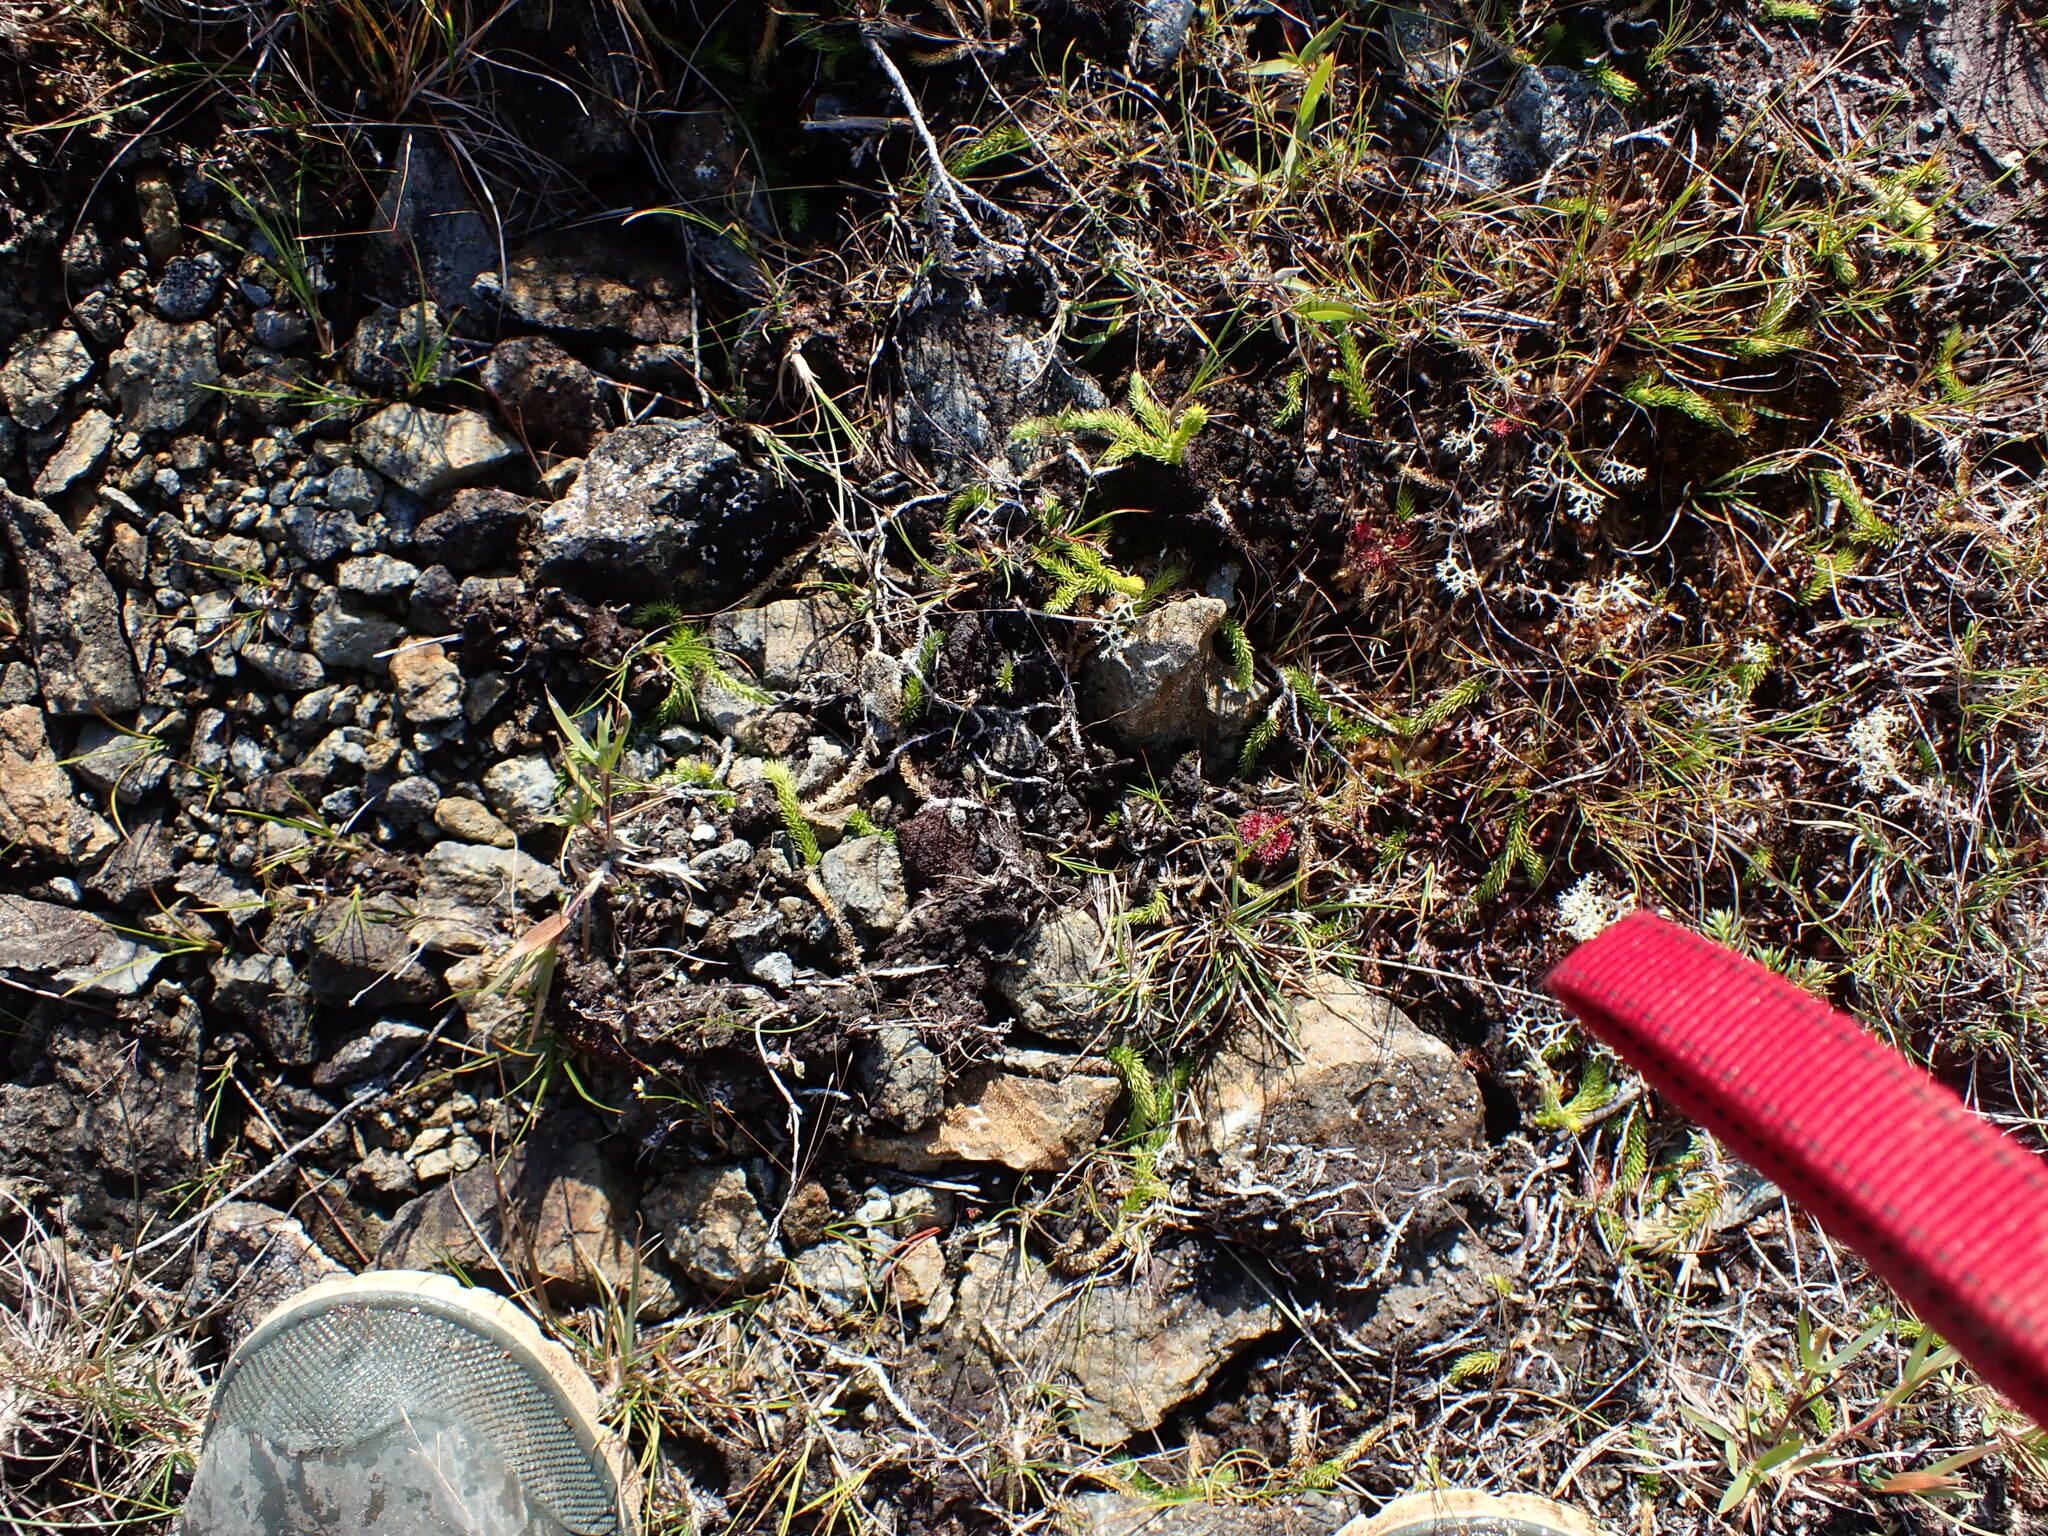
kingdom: Plantae
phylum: Tracheophyta
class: Lycopodiopsida
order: Lycopodiales
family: Lycopodiaceae
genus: Lycopodiella
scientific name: Lycopodiella inundata
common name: Marsh clubmoss
